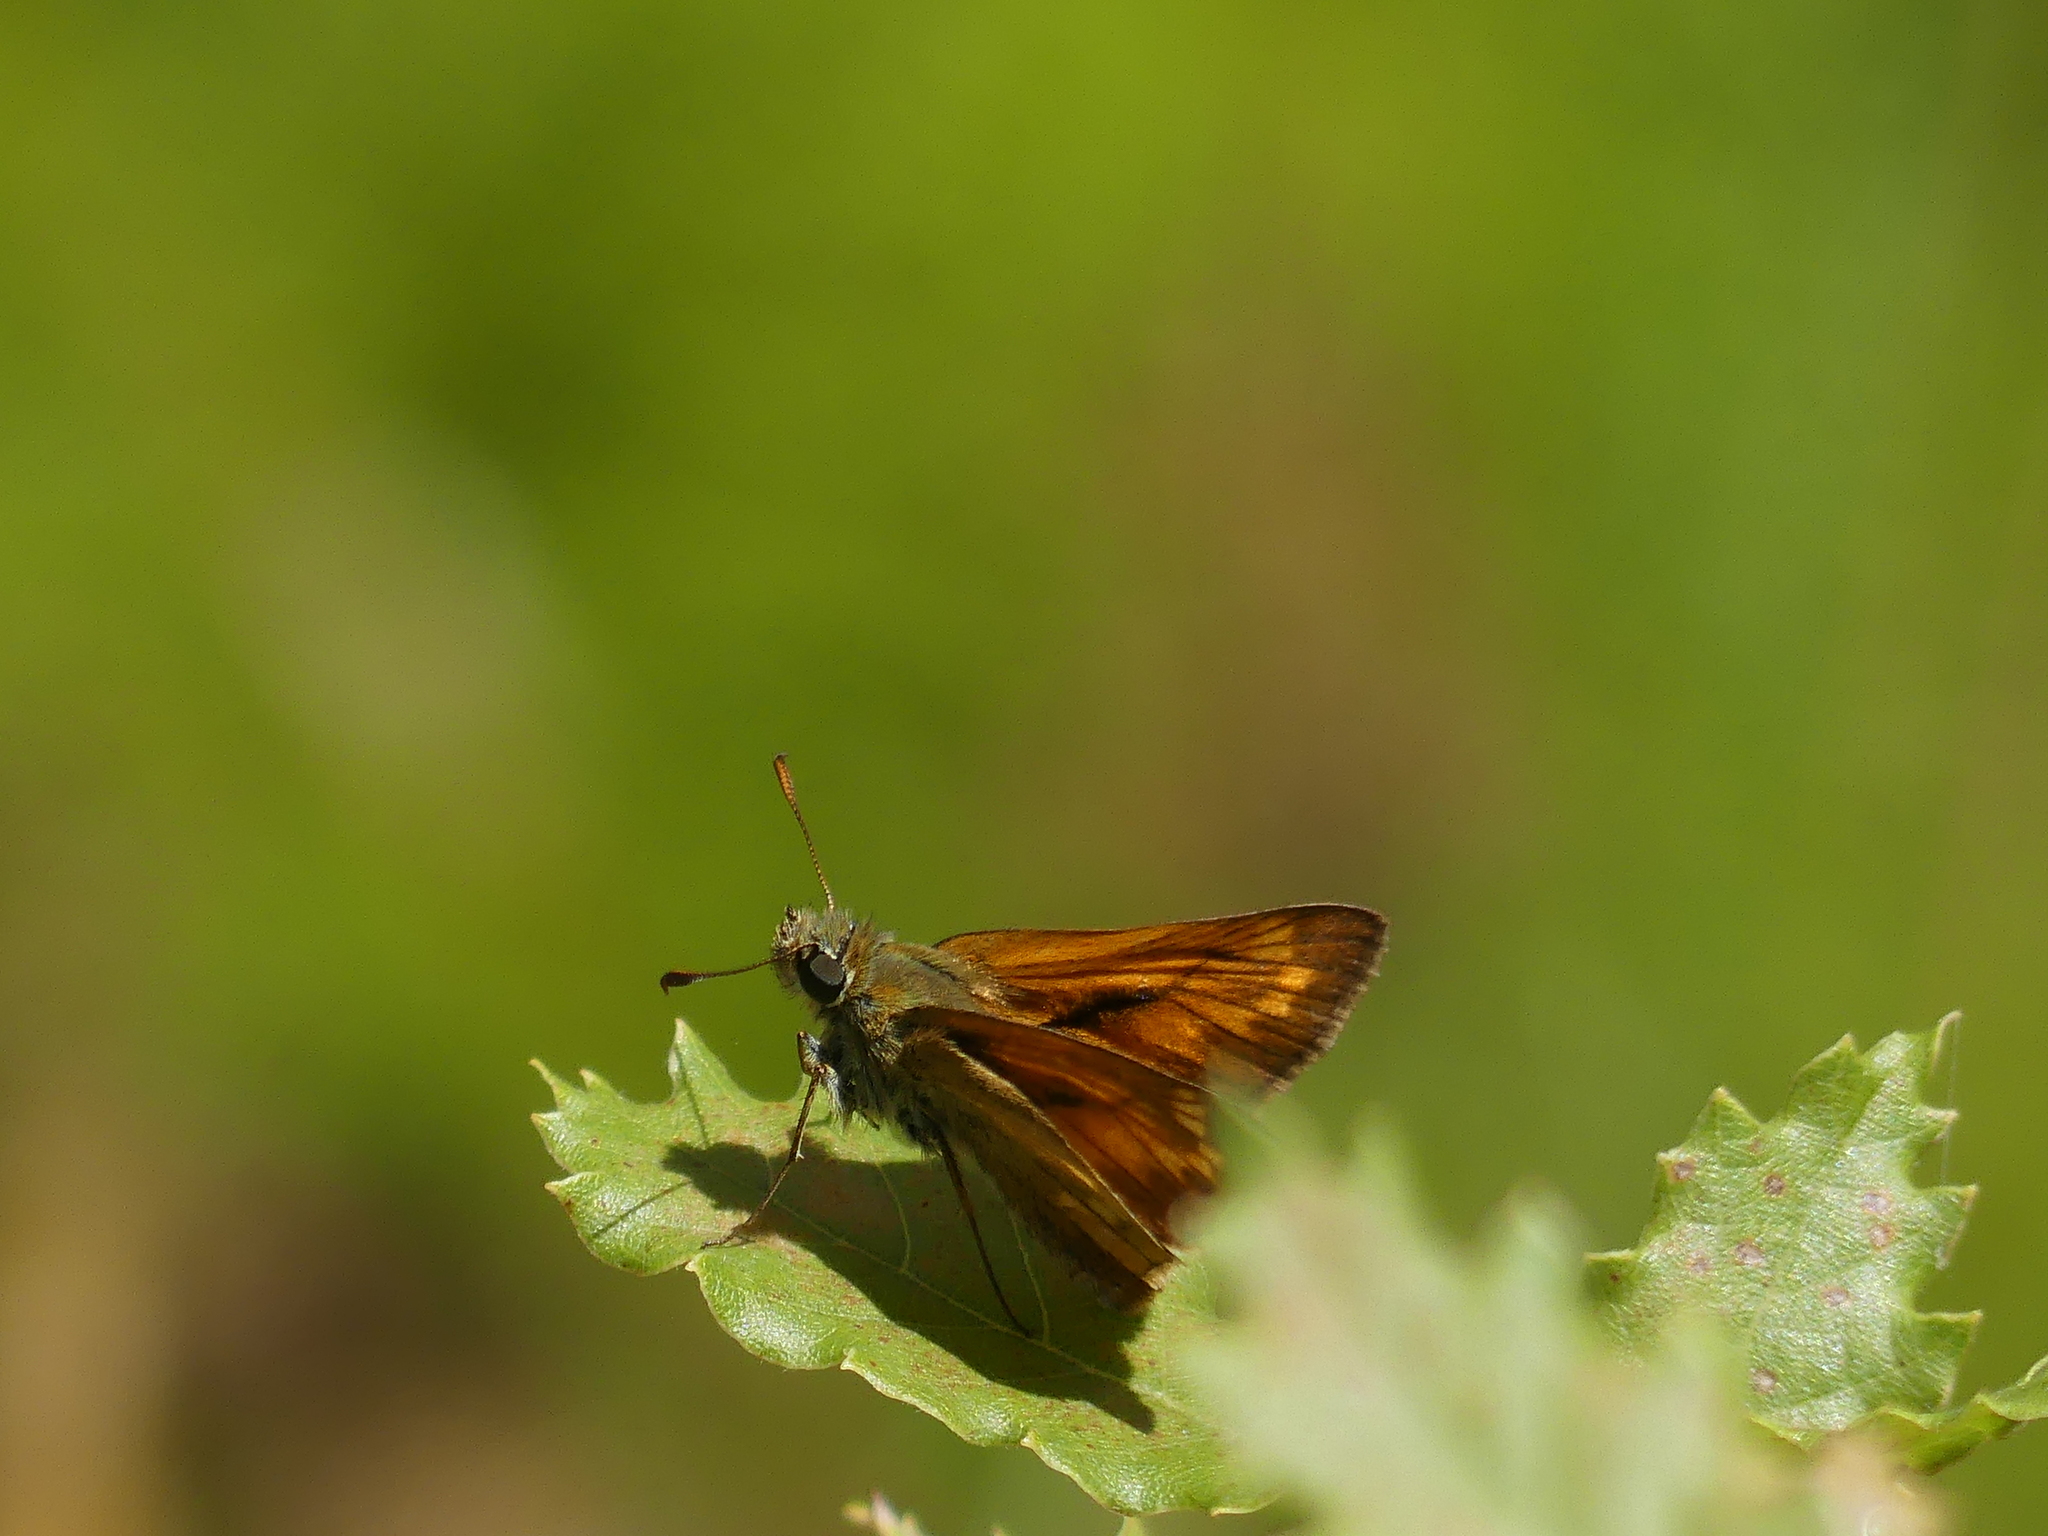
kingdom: Animalia
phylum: Arthropoda
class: Insecta
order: Lepidoptera
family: Hesperiidae
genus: Ochlodes
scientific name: Ochlodes venata
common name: Large skipper
